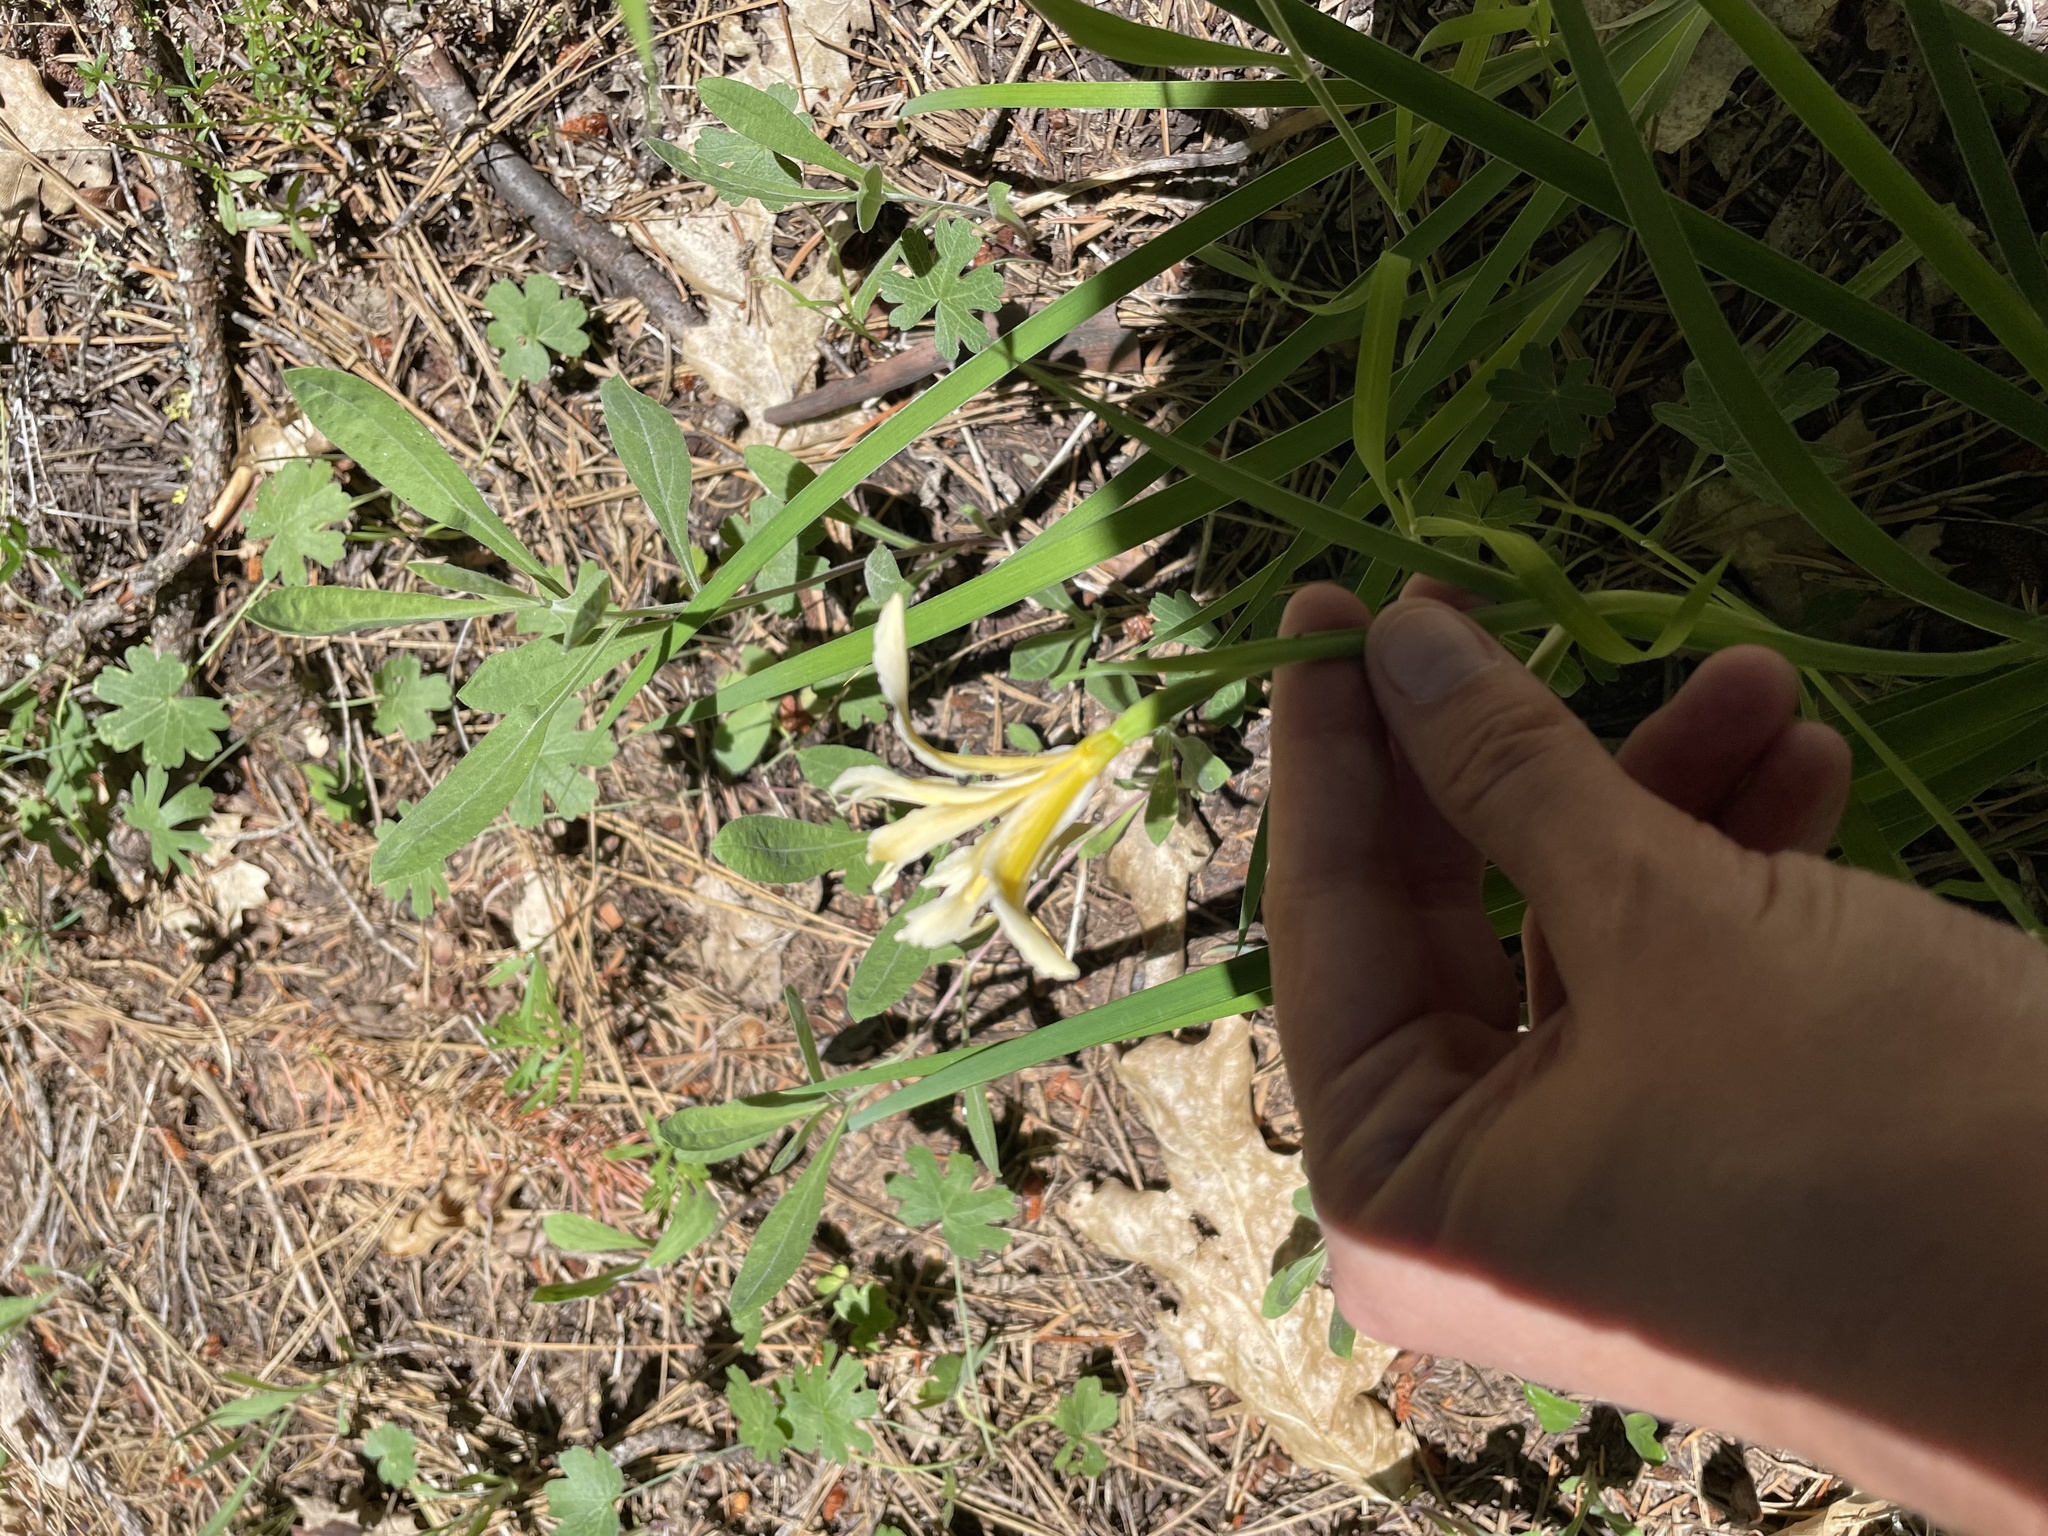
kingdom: Plantae
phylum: Tracheophyta
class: Liliopsida
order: Asparagales
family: Iridaceae
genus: Iris
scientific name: Iris hartwegii
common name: Sierra iris
